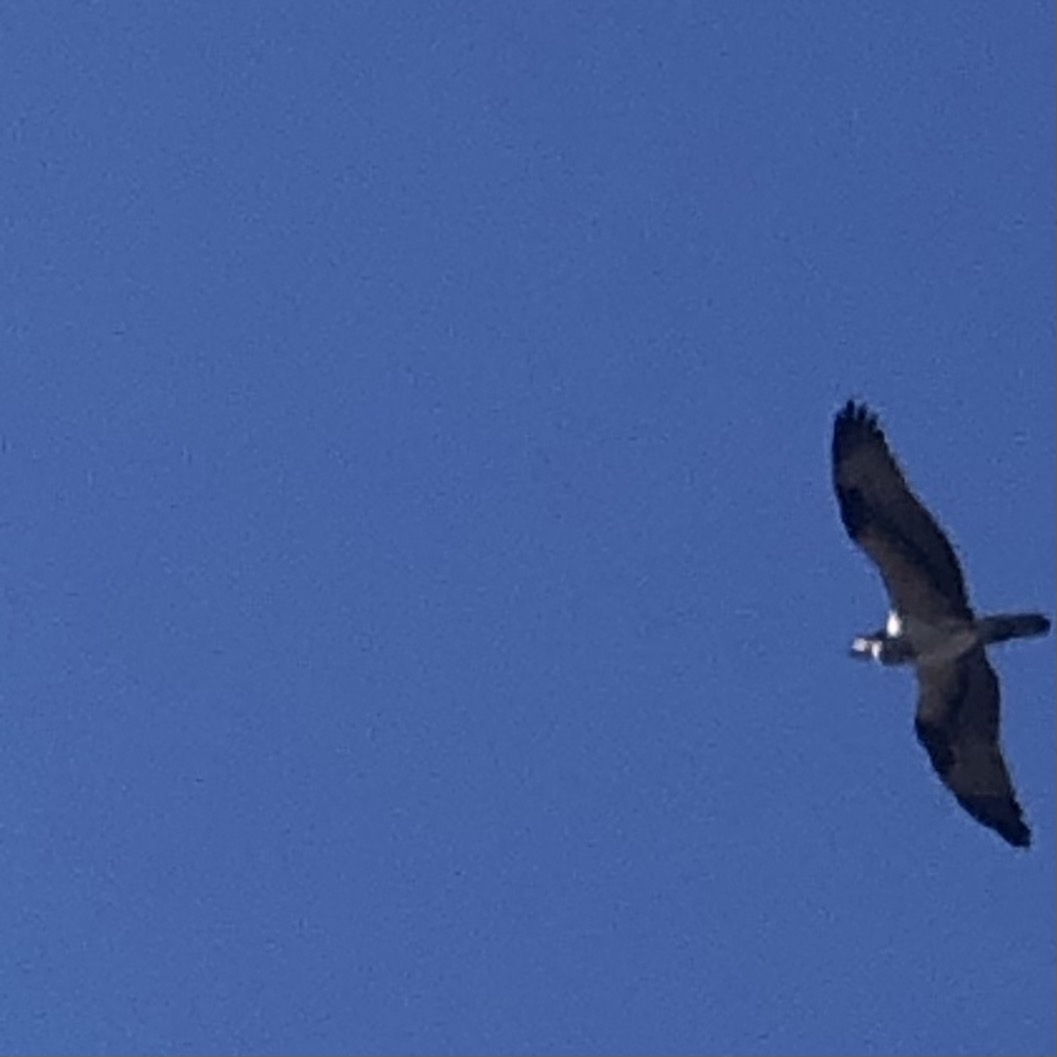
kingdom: Animalia
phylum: Chordata
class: Aves
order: Accipitriformes
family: Pandionidae
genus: Pandion
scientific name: Pandion haliaetus
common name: Osprey
